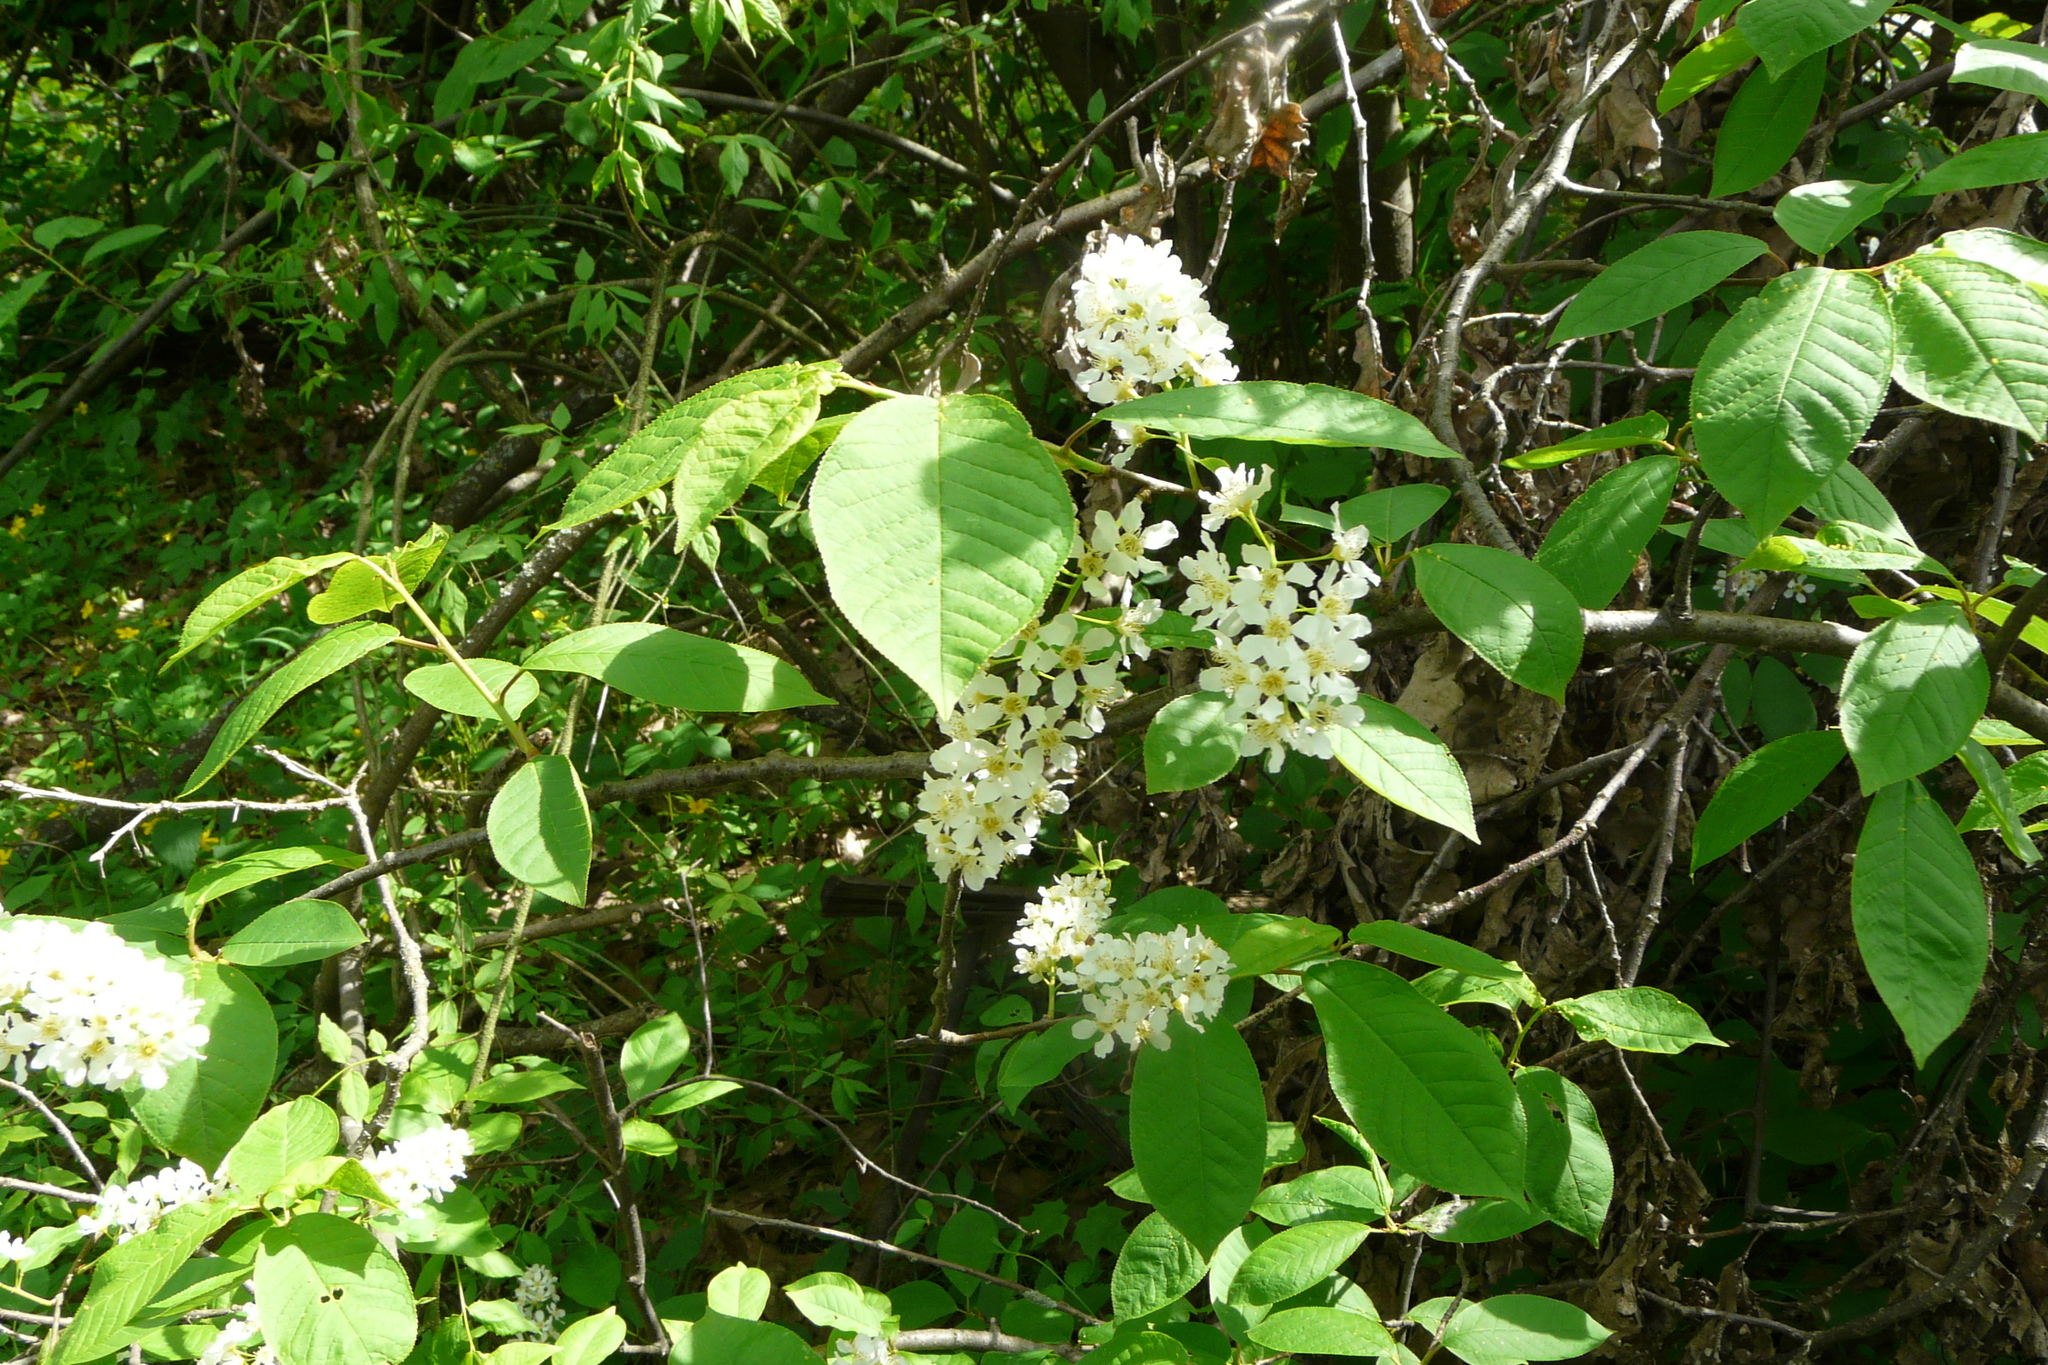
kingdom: Plantae
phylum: Tracheophyta
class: Magnoliopsida
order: Rosales
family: Rosaceae
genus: Prunus
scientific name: Prunus padus
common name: Bird cherry
